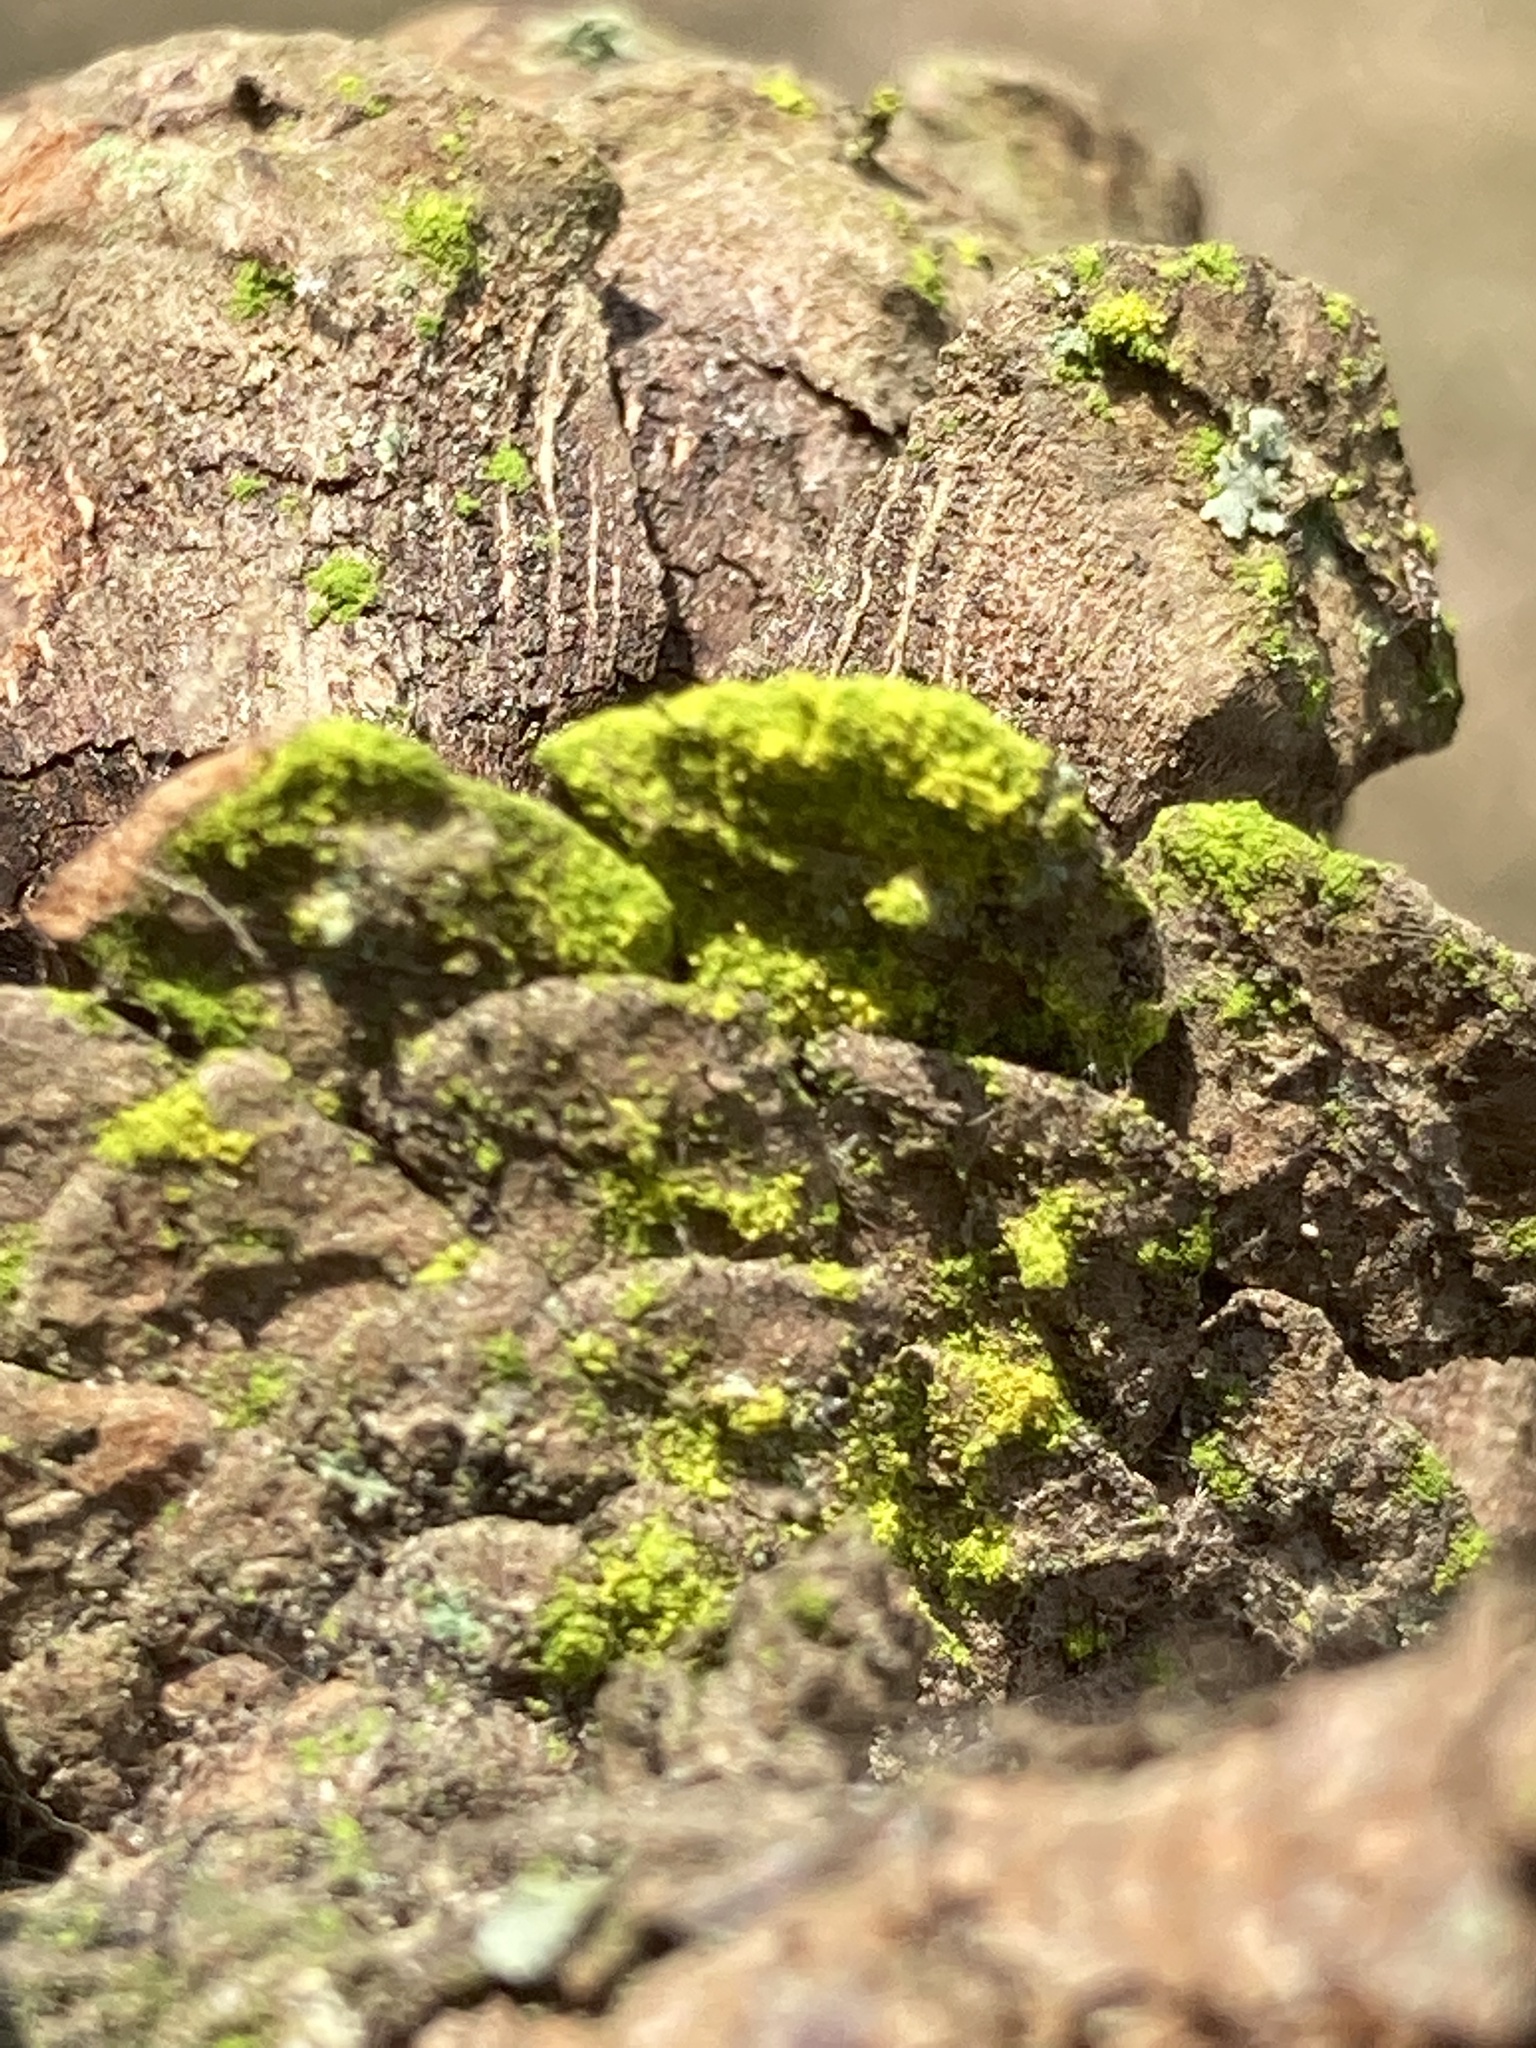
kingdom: Fungi
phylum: Ascomycota
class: Arthoniomycetes
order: Arthoniales
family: Chrysotrichaceae
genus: Chrysothrix
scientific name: Chrysothrix xanthina
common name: Common gold-dust
